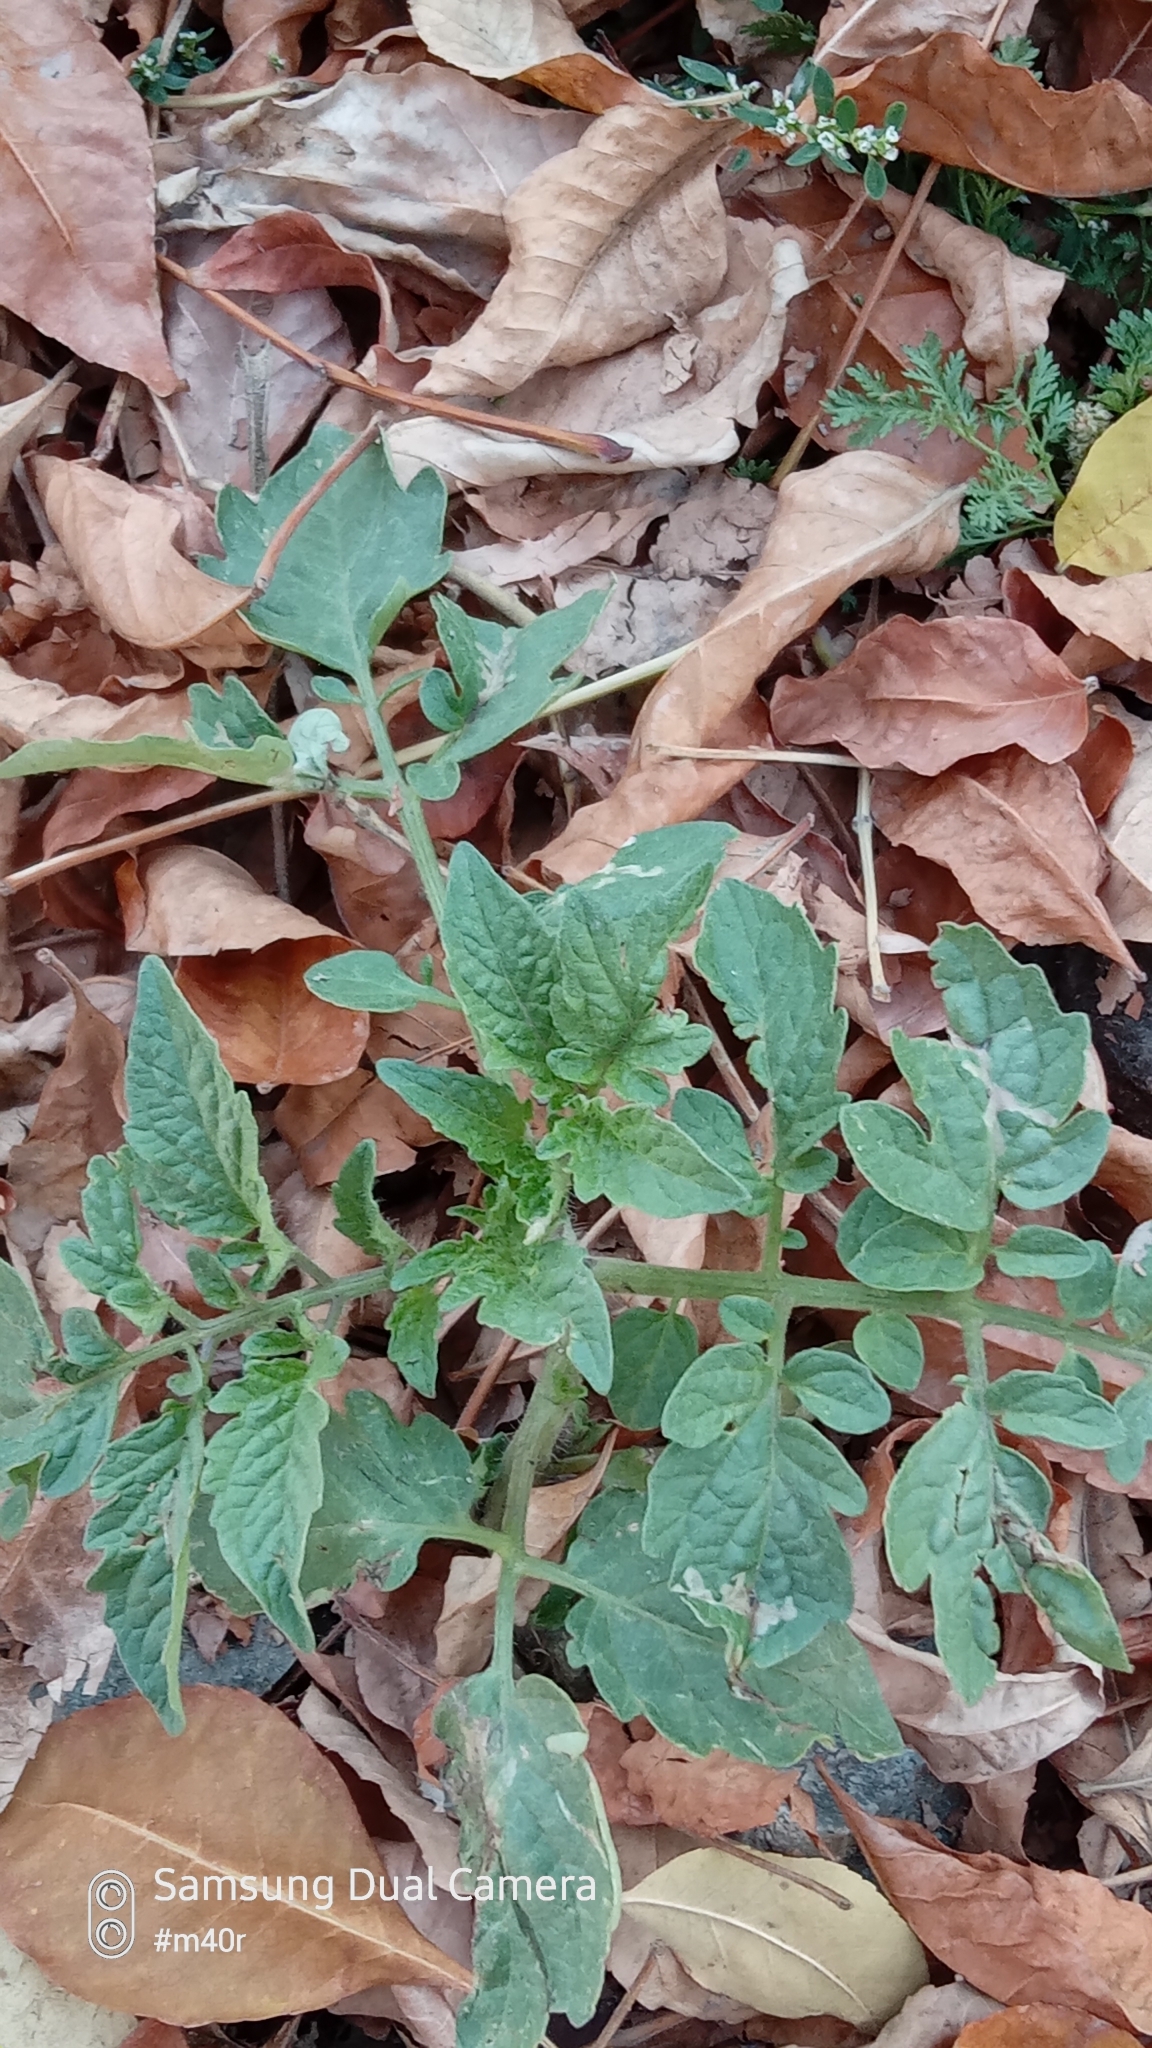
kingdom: Plantae
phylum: Tracheophyta
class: Magnoliopsida
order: Solanales
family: Solanaceae
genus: Solanum
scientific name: Solanum lycopersicum
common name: Garden tomato
